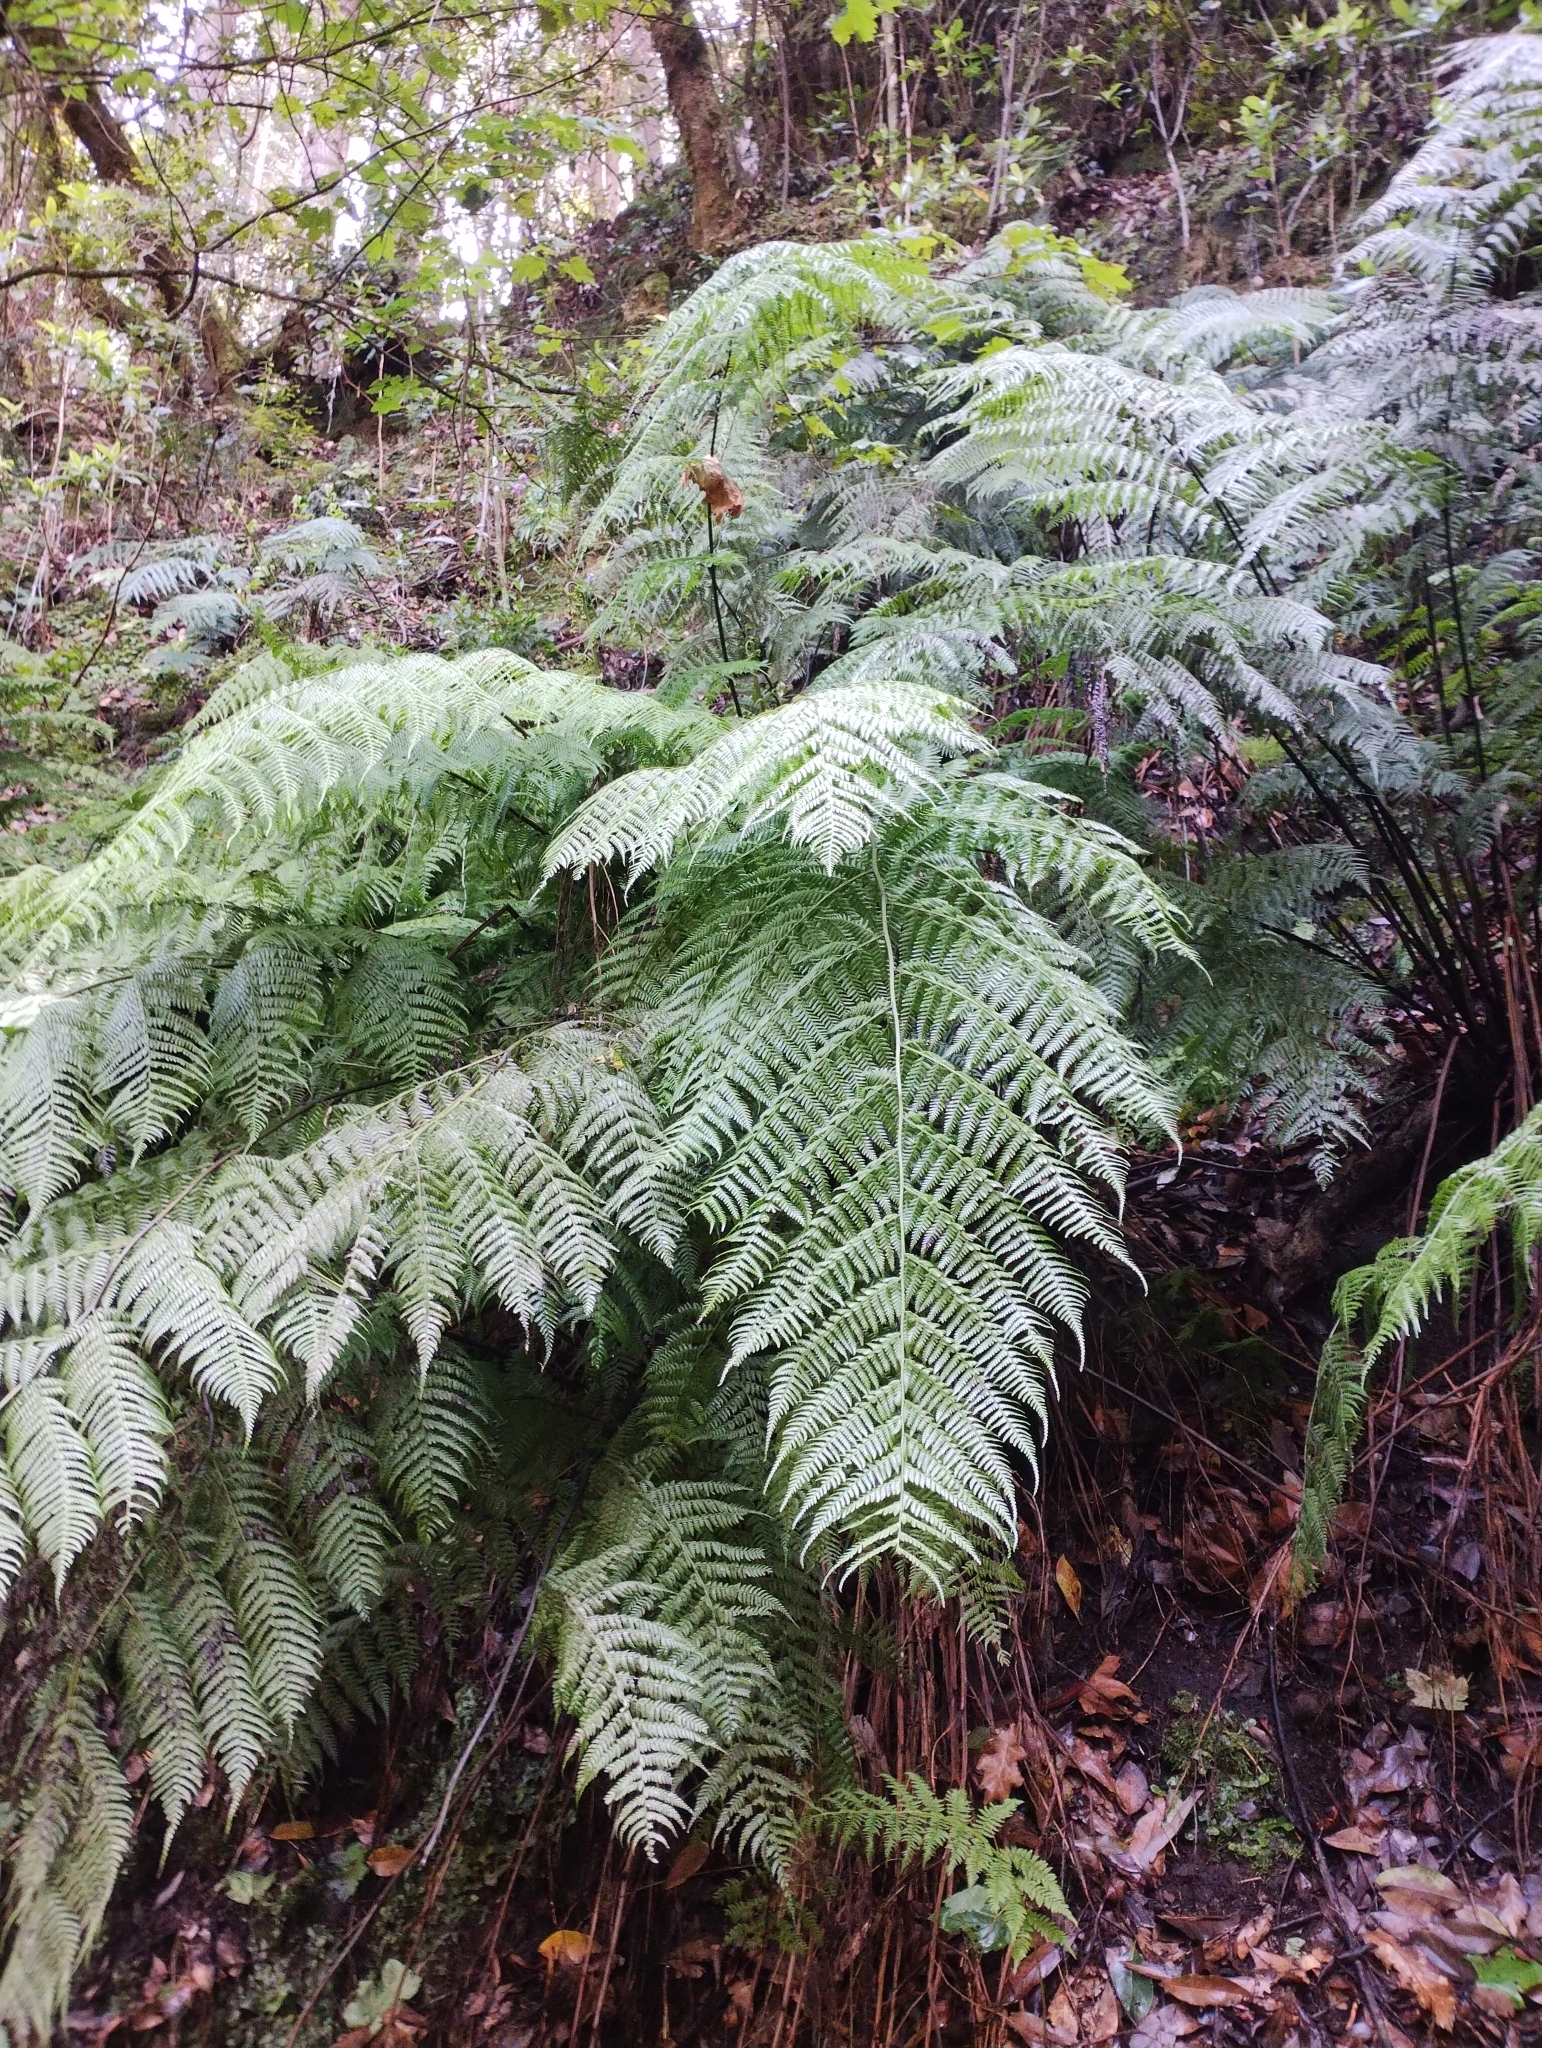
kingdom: Plantae
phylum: Tracheophyta
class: Polypodiopsida
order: Polypodiales
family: Athyriaceae
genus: Diplazium
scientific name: Diplazium caudatum
